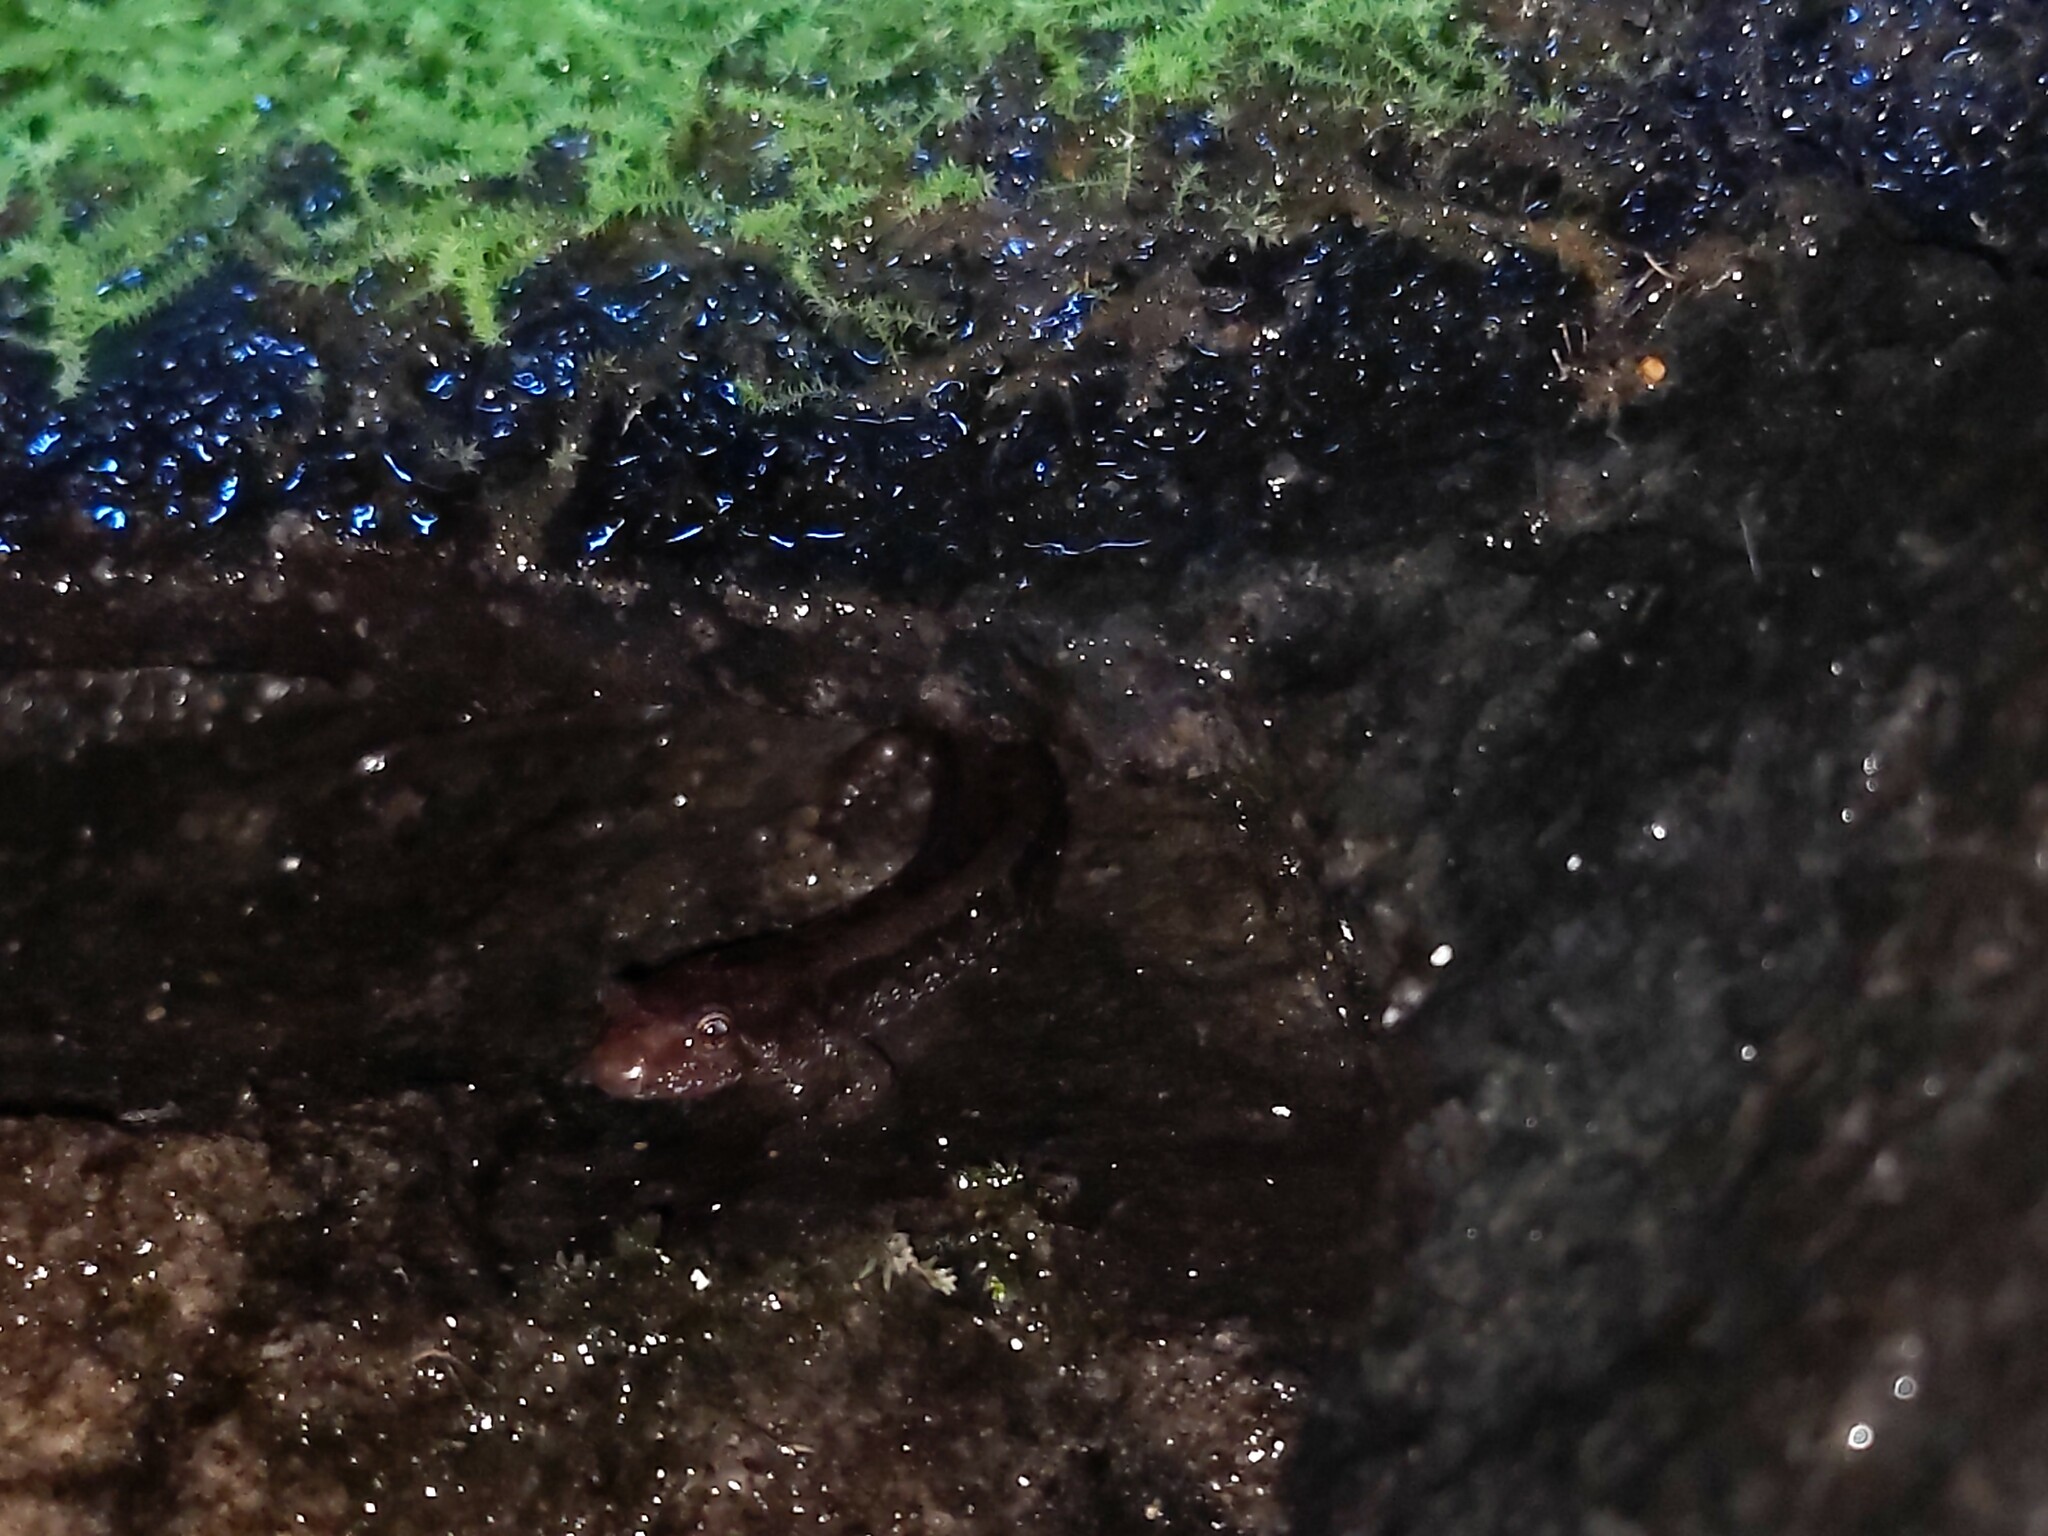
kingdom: Animalia
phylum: Chordata
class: Amphibia
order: Caudata
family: Plethodontidae
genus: Desmognathus
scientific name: Desmognathus ochrophaeus
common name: Allegheny mountain dusky salamander
